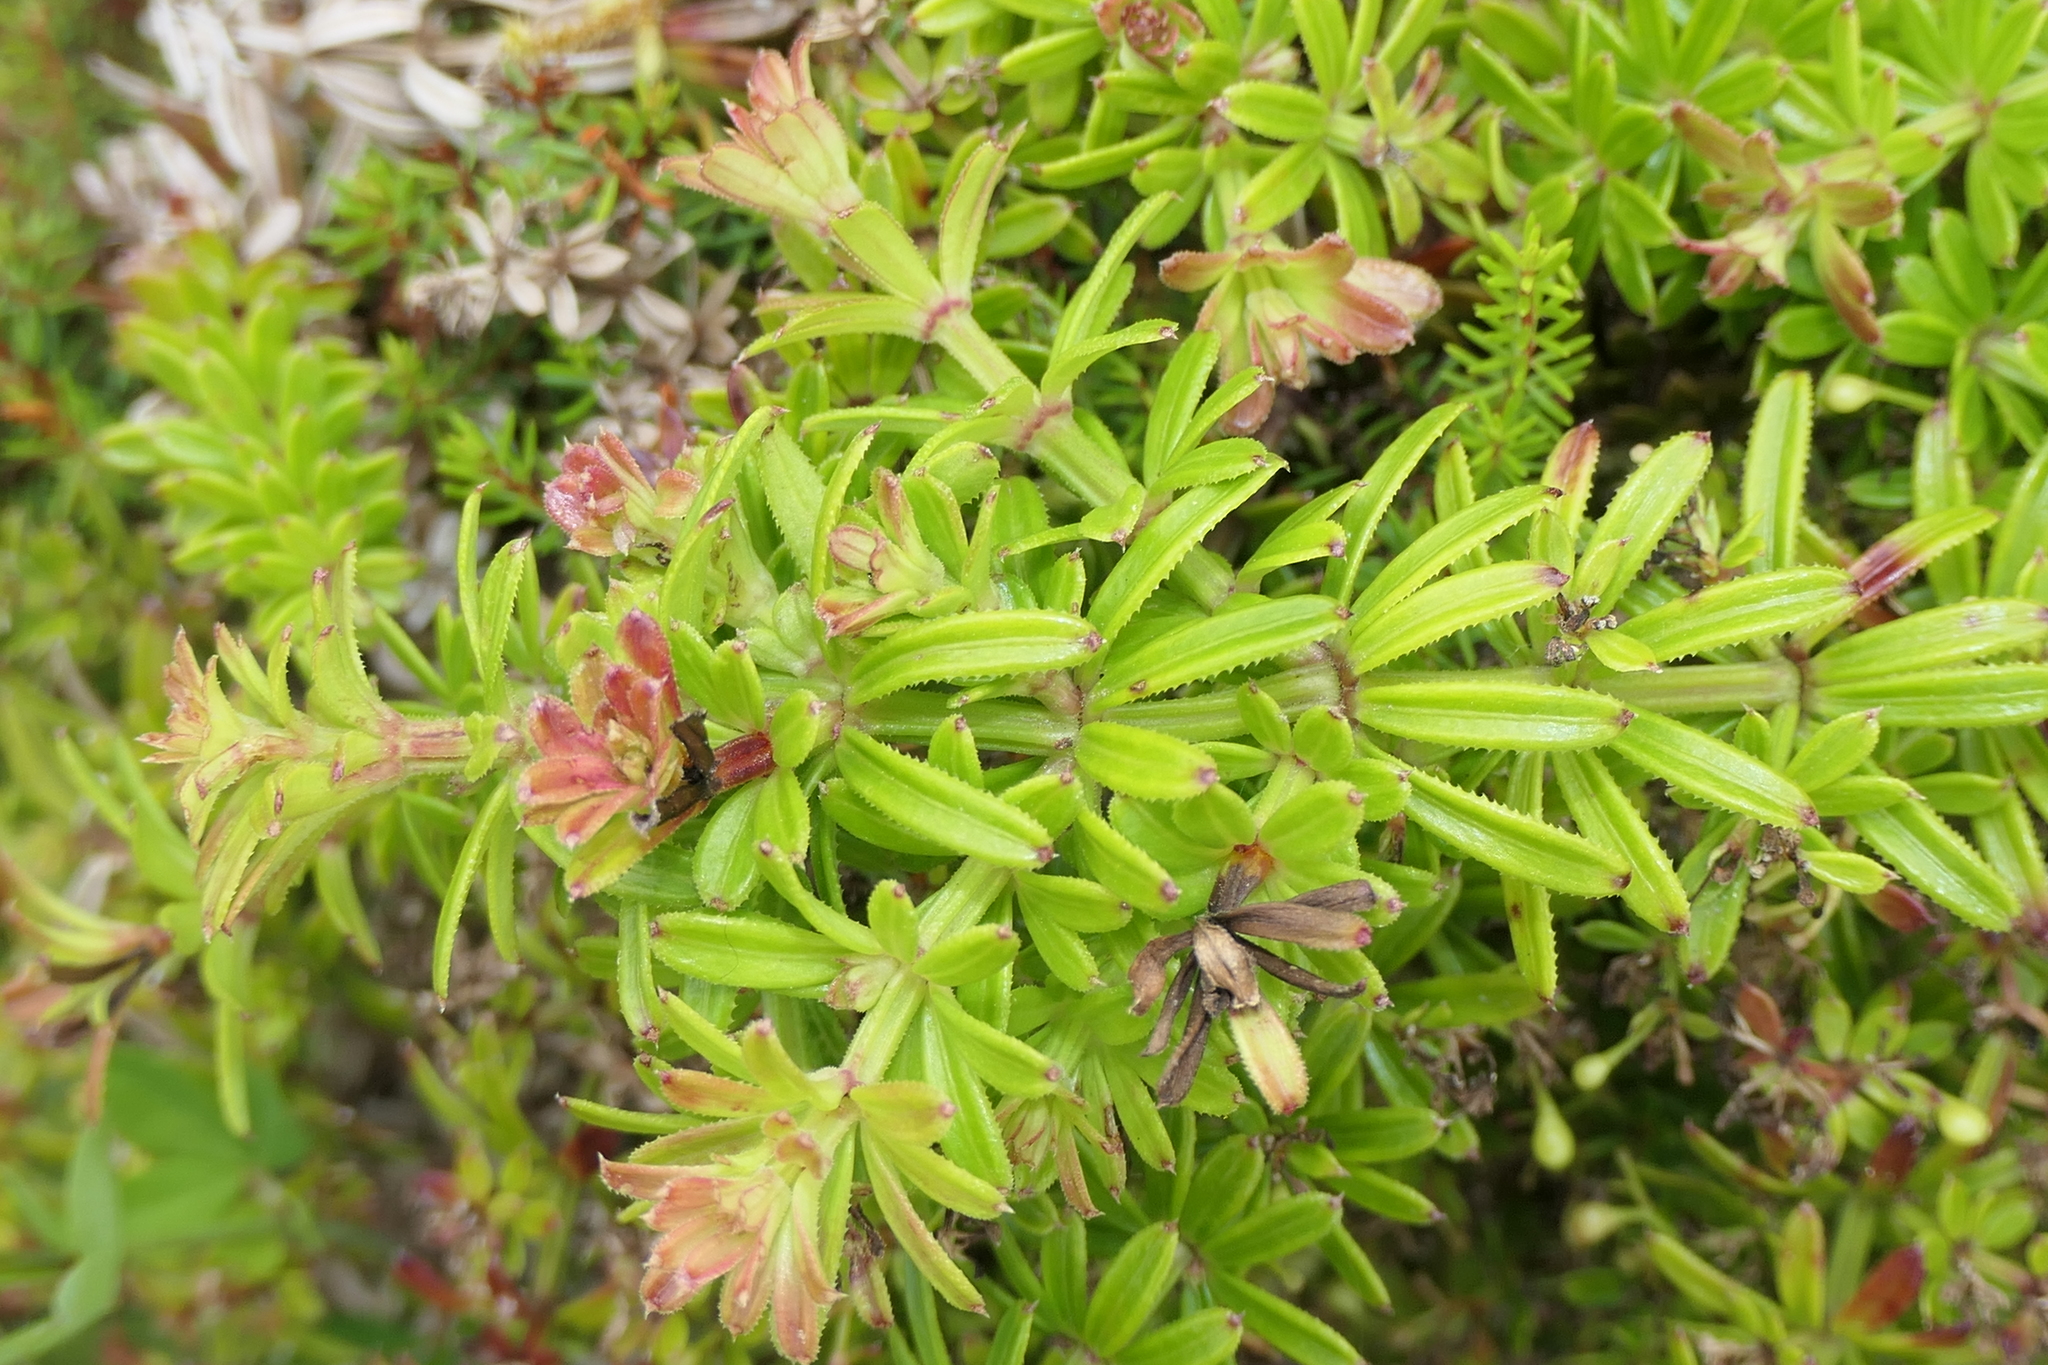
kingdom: Plantae
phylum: Tracheophyta
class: Magnoliopsida
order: Gentianales
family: Rubiaceae
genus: Rubia
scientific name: Rubia agostinhoi
